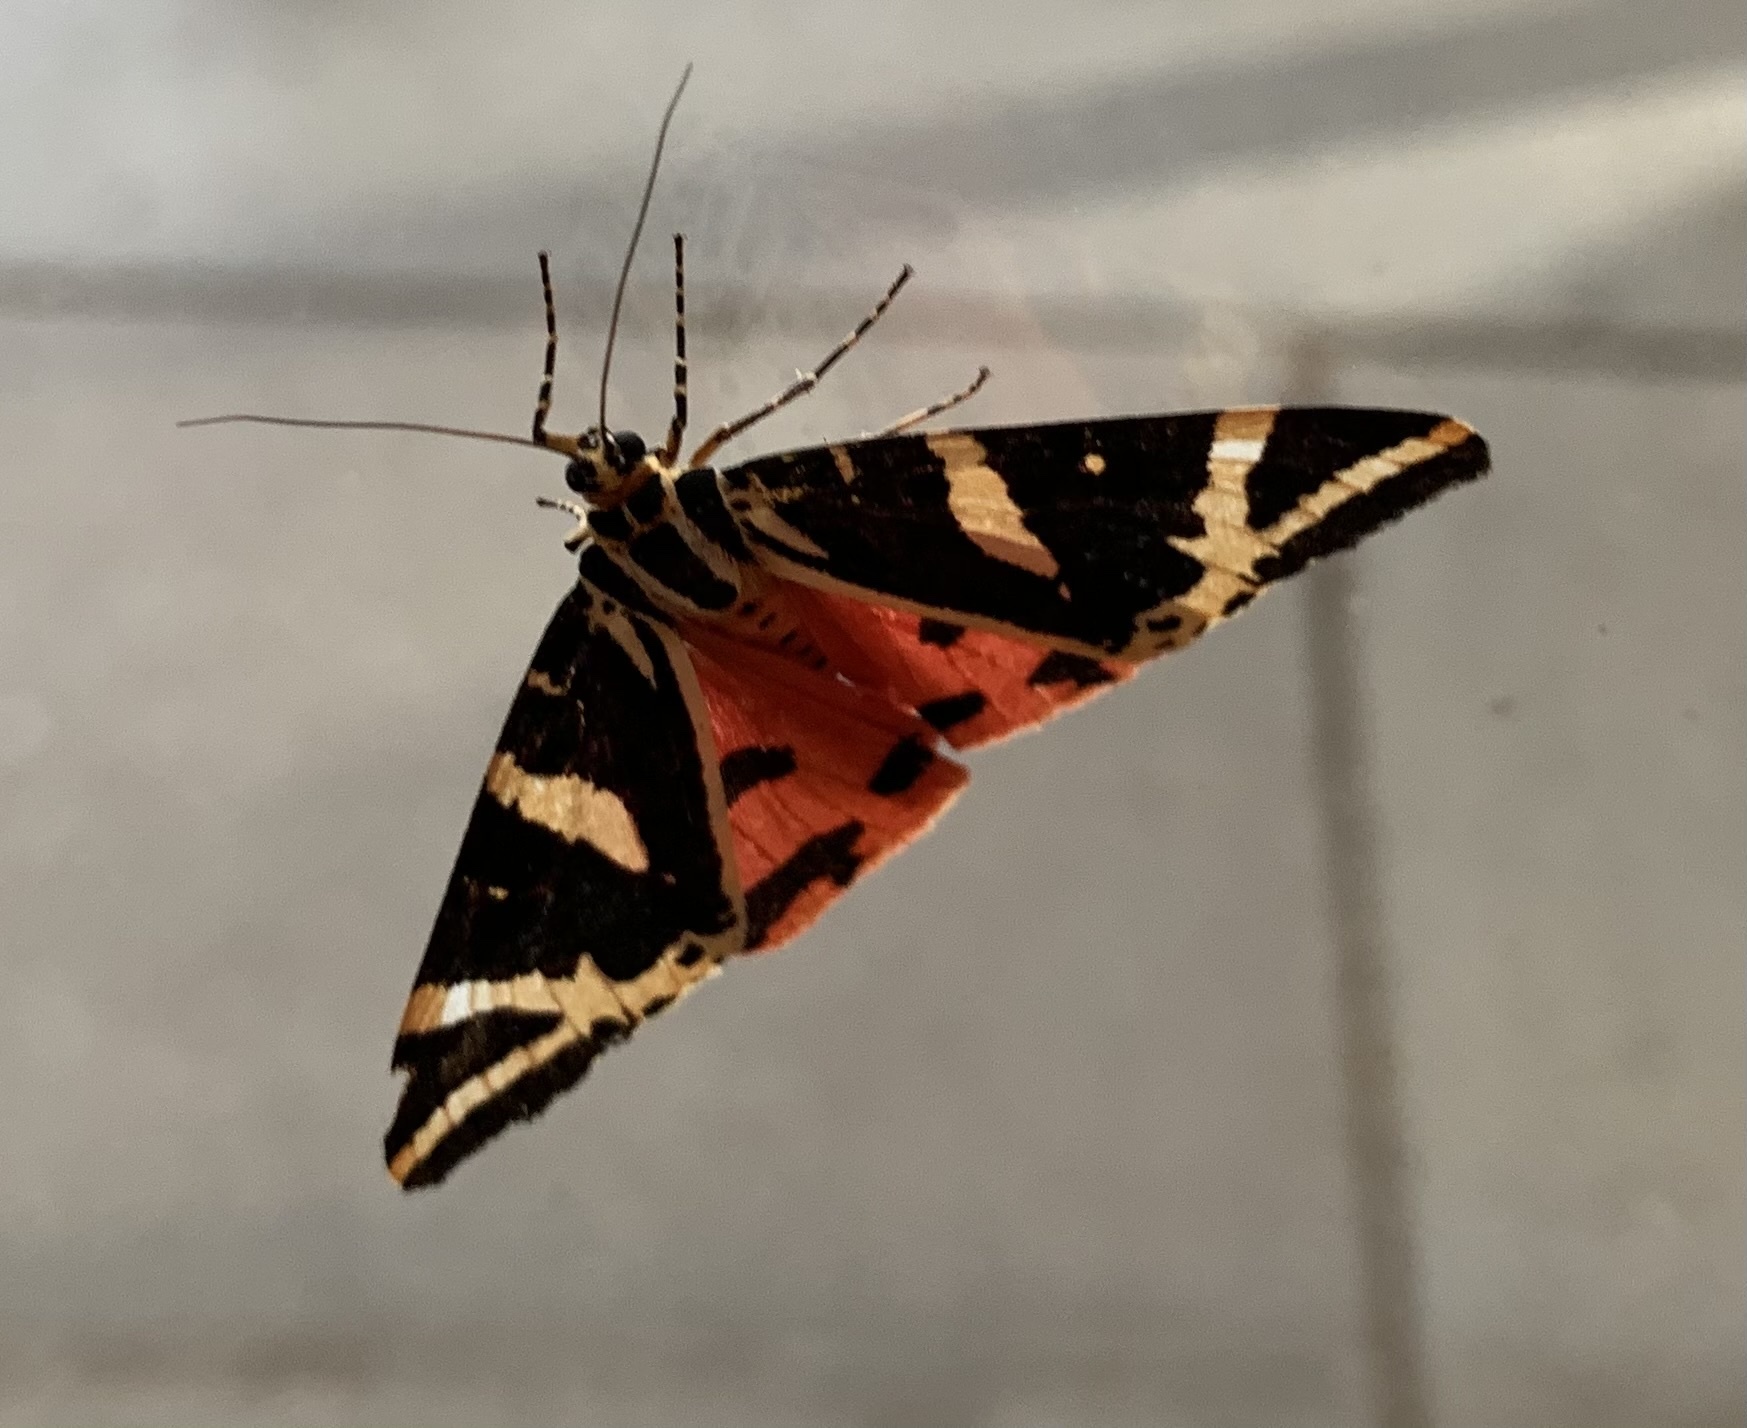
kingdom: Animalia
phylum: Arthropoda
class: Insecta
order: Lepidoptera
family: Erebidae
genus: Euplagia
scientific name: Euplagia quadripunctaria
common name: Jersey tiger
